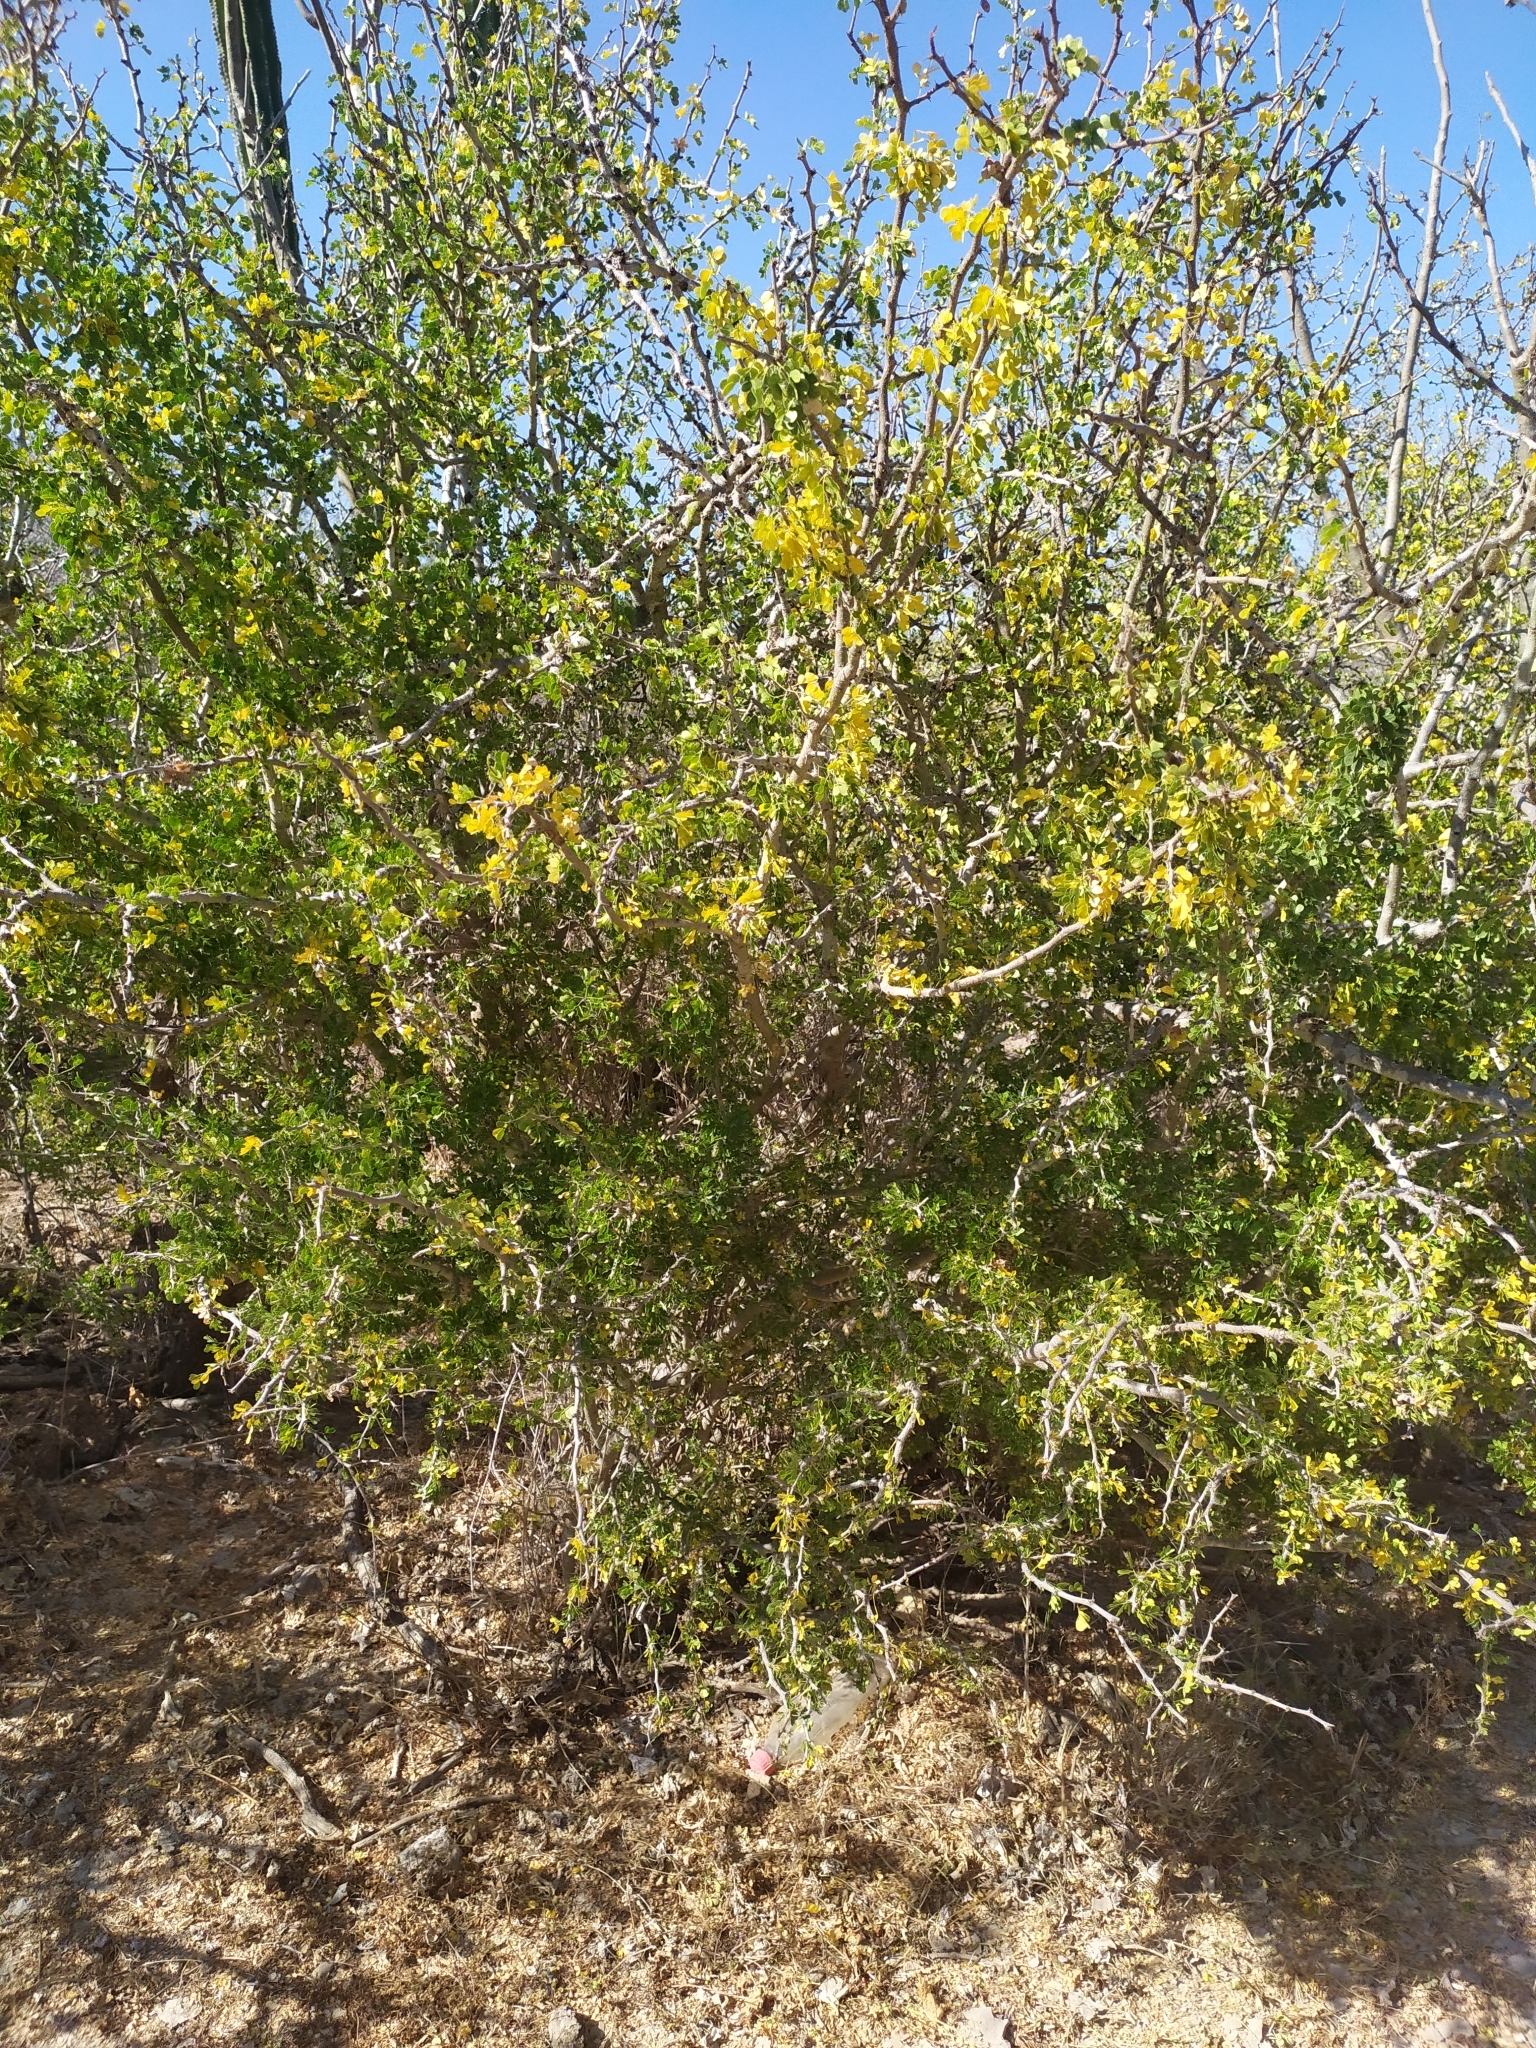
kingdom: Plantae
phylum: Tracheophyta
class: Magnoliopsida
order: Fabales
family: Fabaceae
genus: Ebenopsis
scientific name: Ebenopsis confinis
